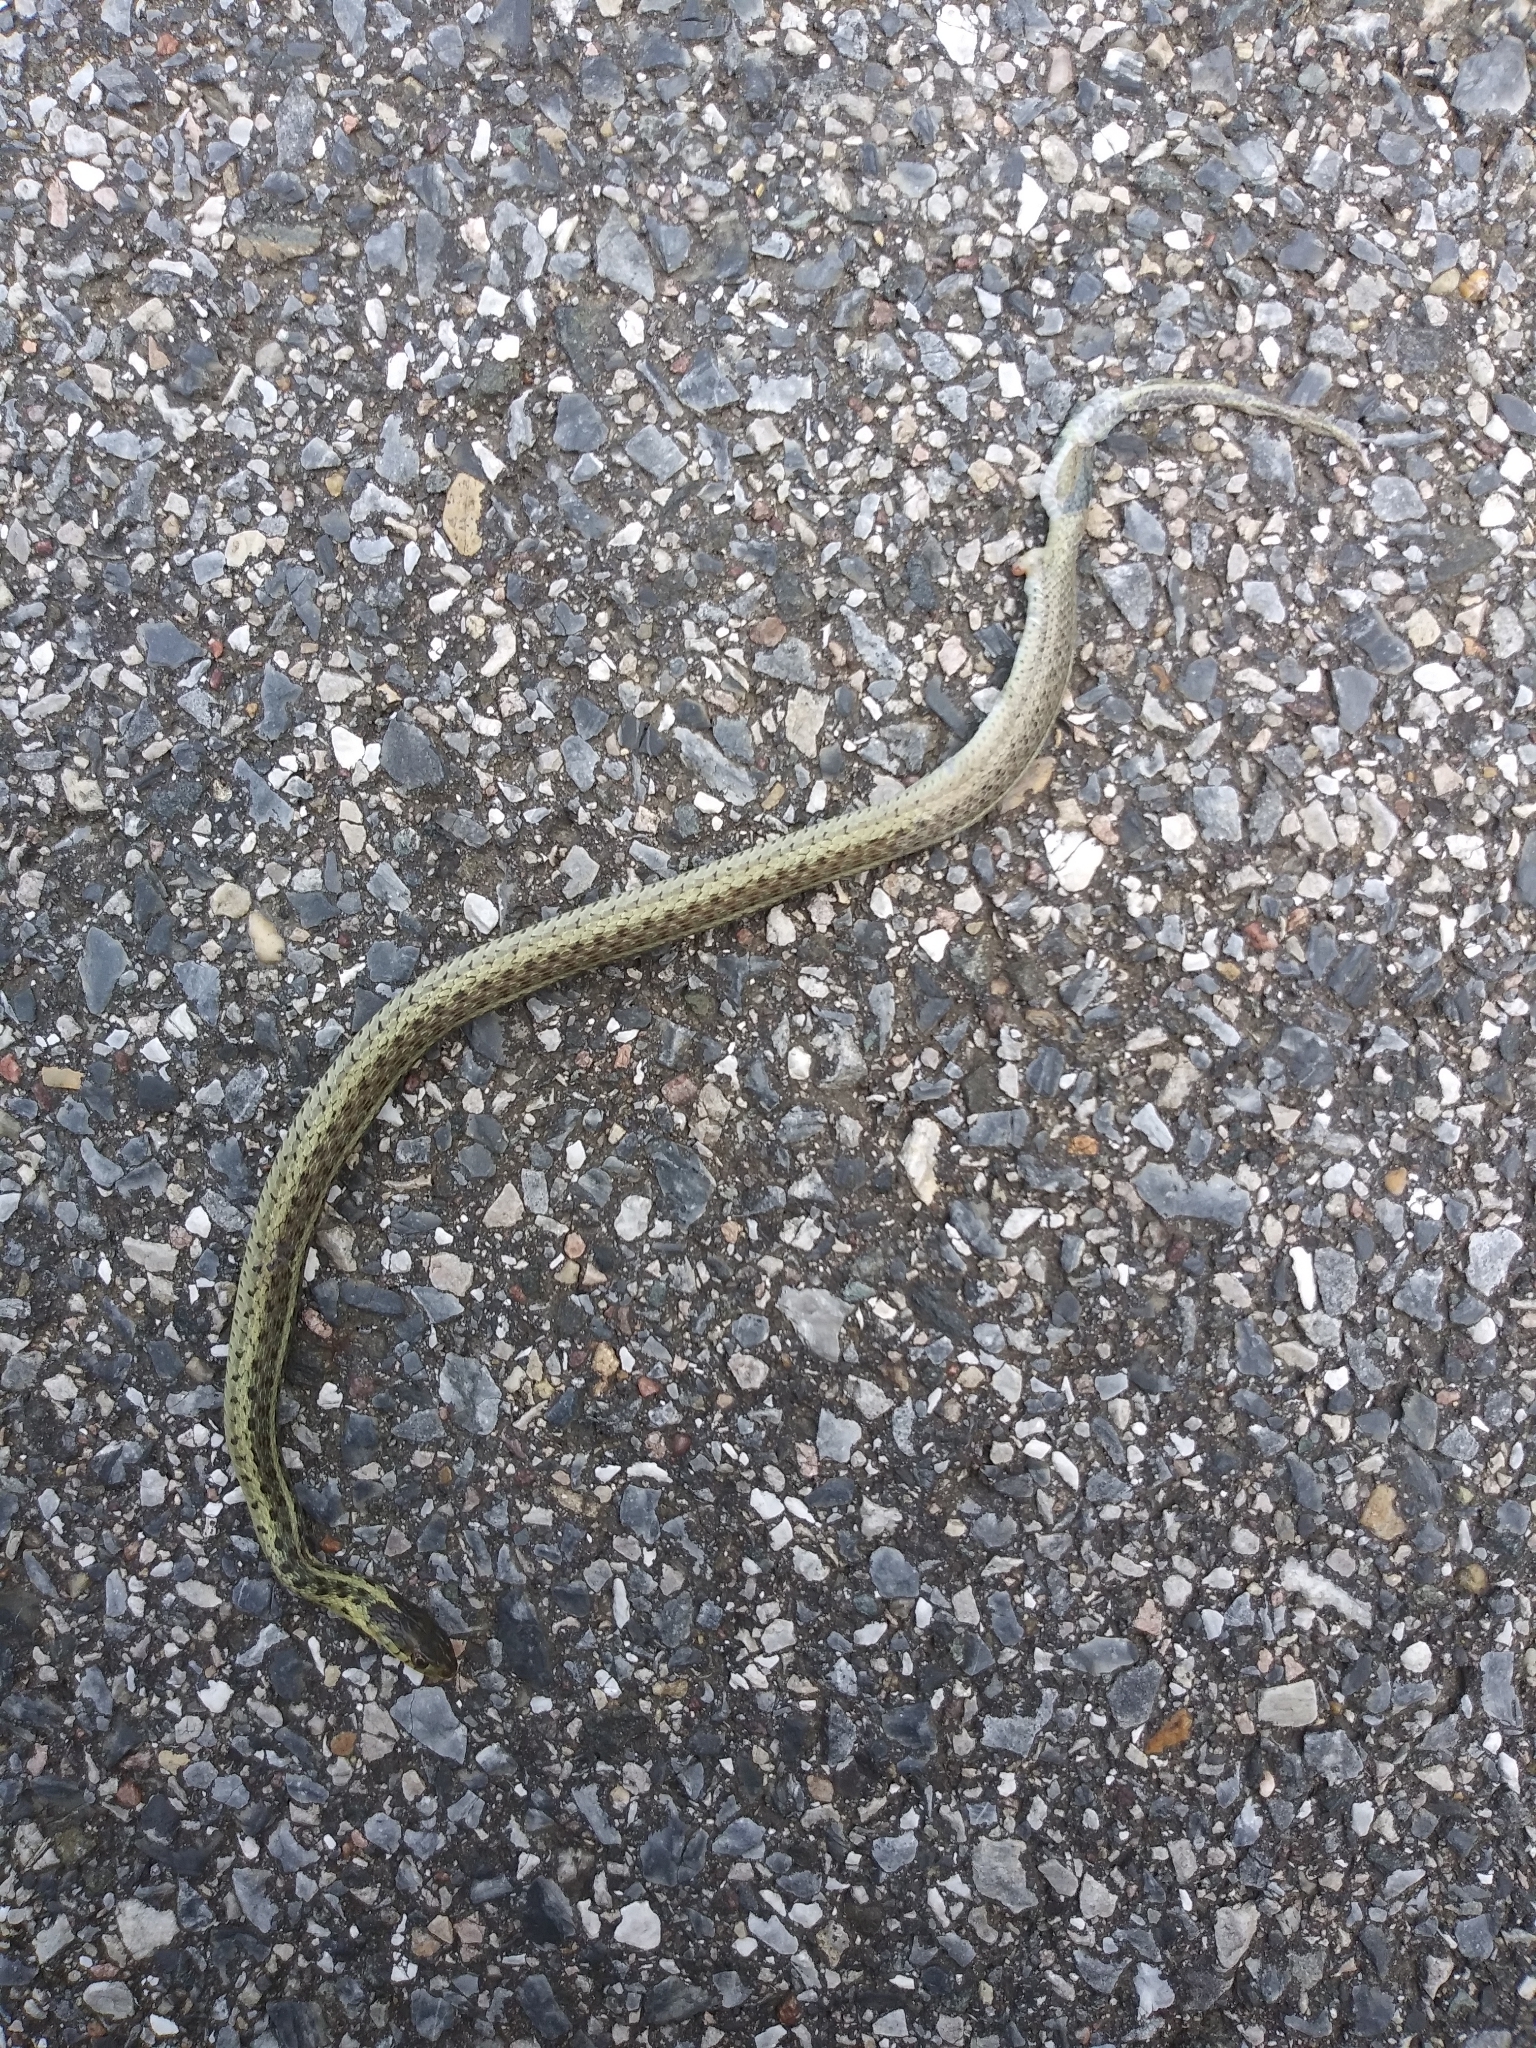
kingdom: Animalia
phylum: Chordata
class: Squamata
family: Colubridae
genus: Thamnophis
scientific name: Thamnophis sirtalis
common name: Common garter snake
